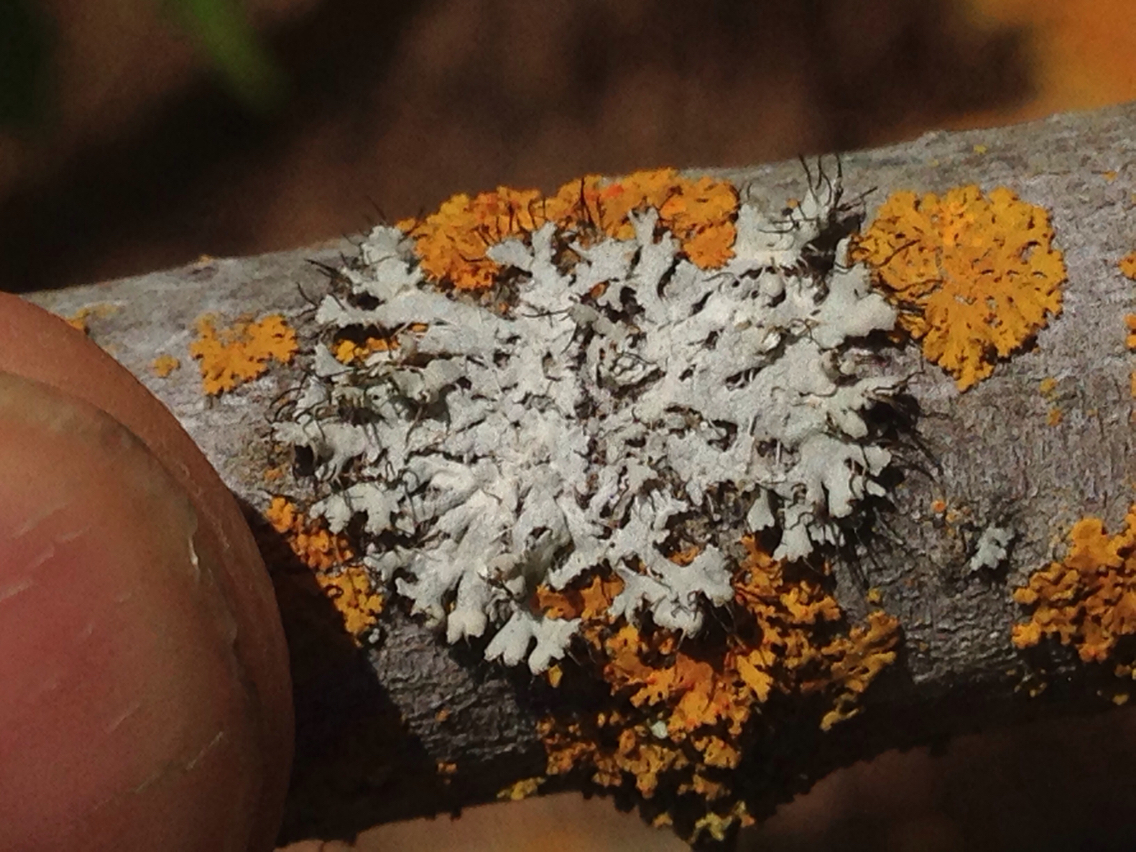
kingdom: Fungi
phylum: Ascomycota
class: Lecanoromycetes
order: Caliciales
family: Physciaceae
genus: Physcia
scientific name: Physcia adscendens
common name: Hooded rosette lichen
